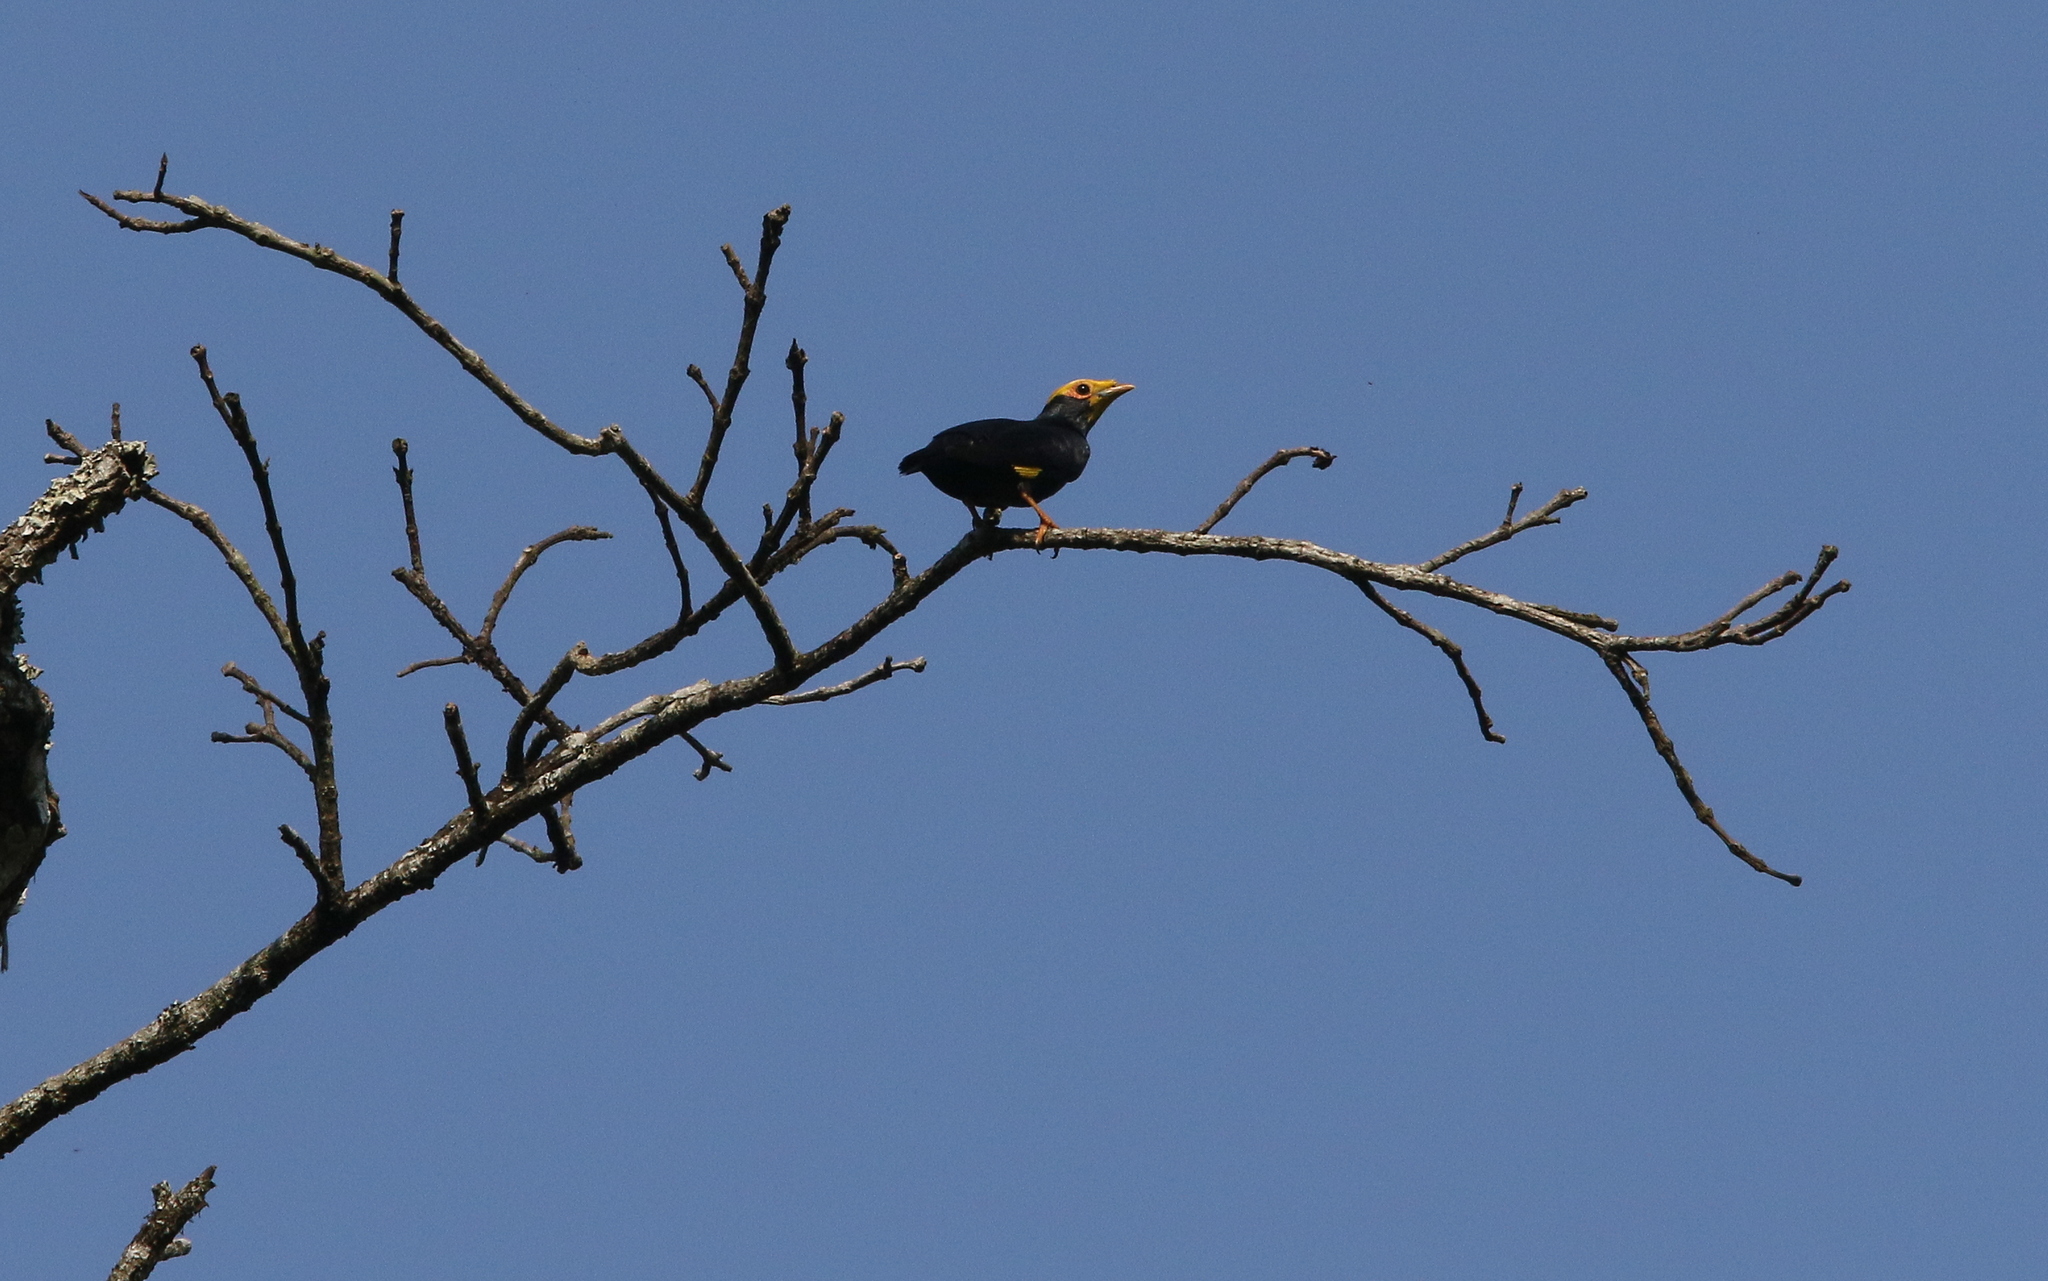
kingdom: Animalia
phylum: Chordata
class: Aves
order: Passeriformes
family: Sturnidae
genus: Ampeliceps
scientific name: Ampeliceps coronatus
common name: Golden-crested myna
